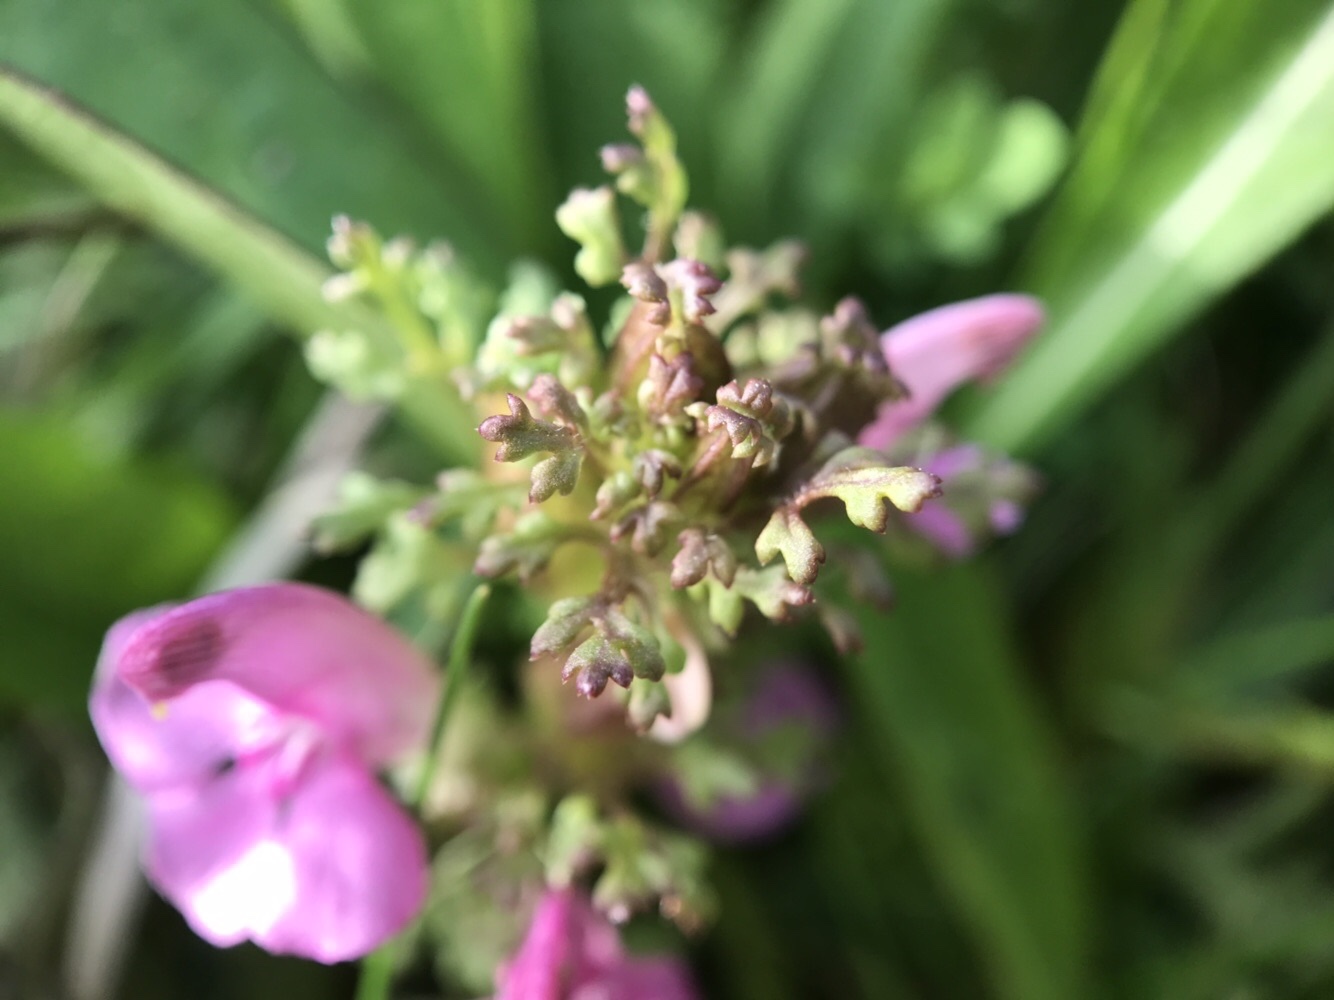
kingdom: Plantae
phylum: Tracheophyta
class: Magnoliopsida
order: Lamiales
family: Orobanchaceae
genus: Pedicularis
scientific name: Pedicularis sylvatica
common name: Lousewort
